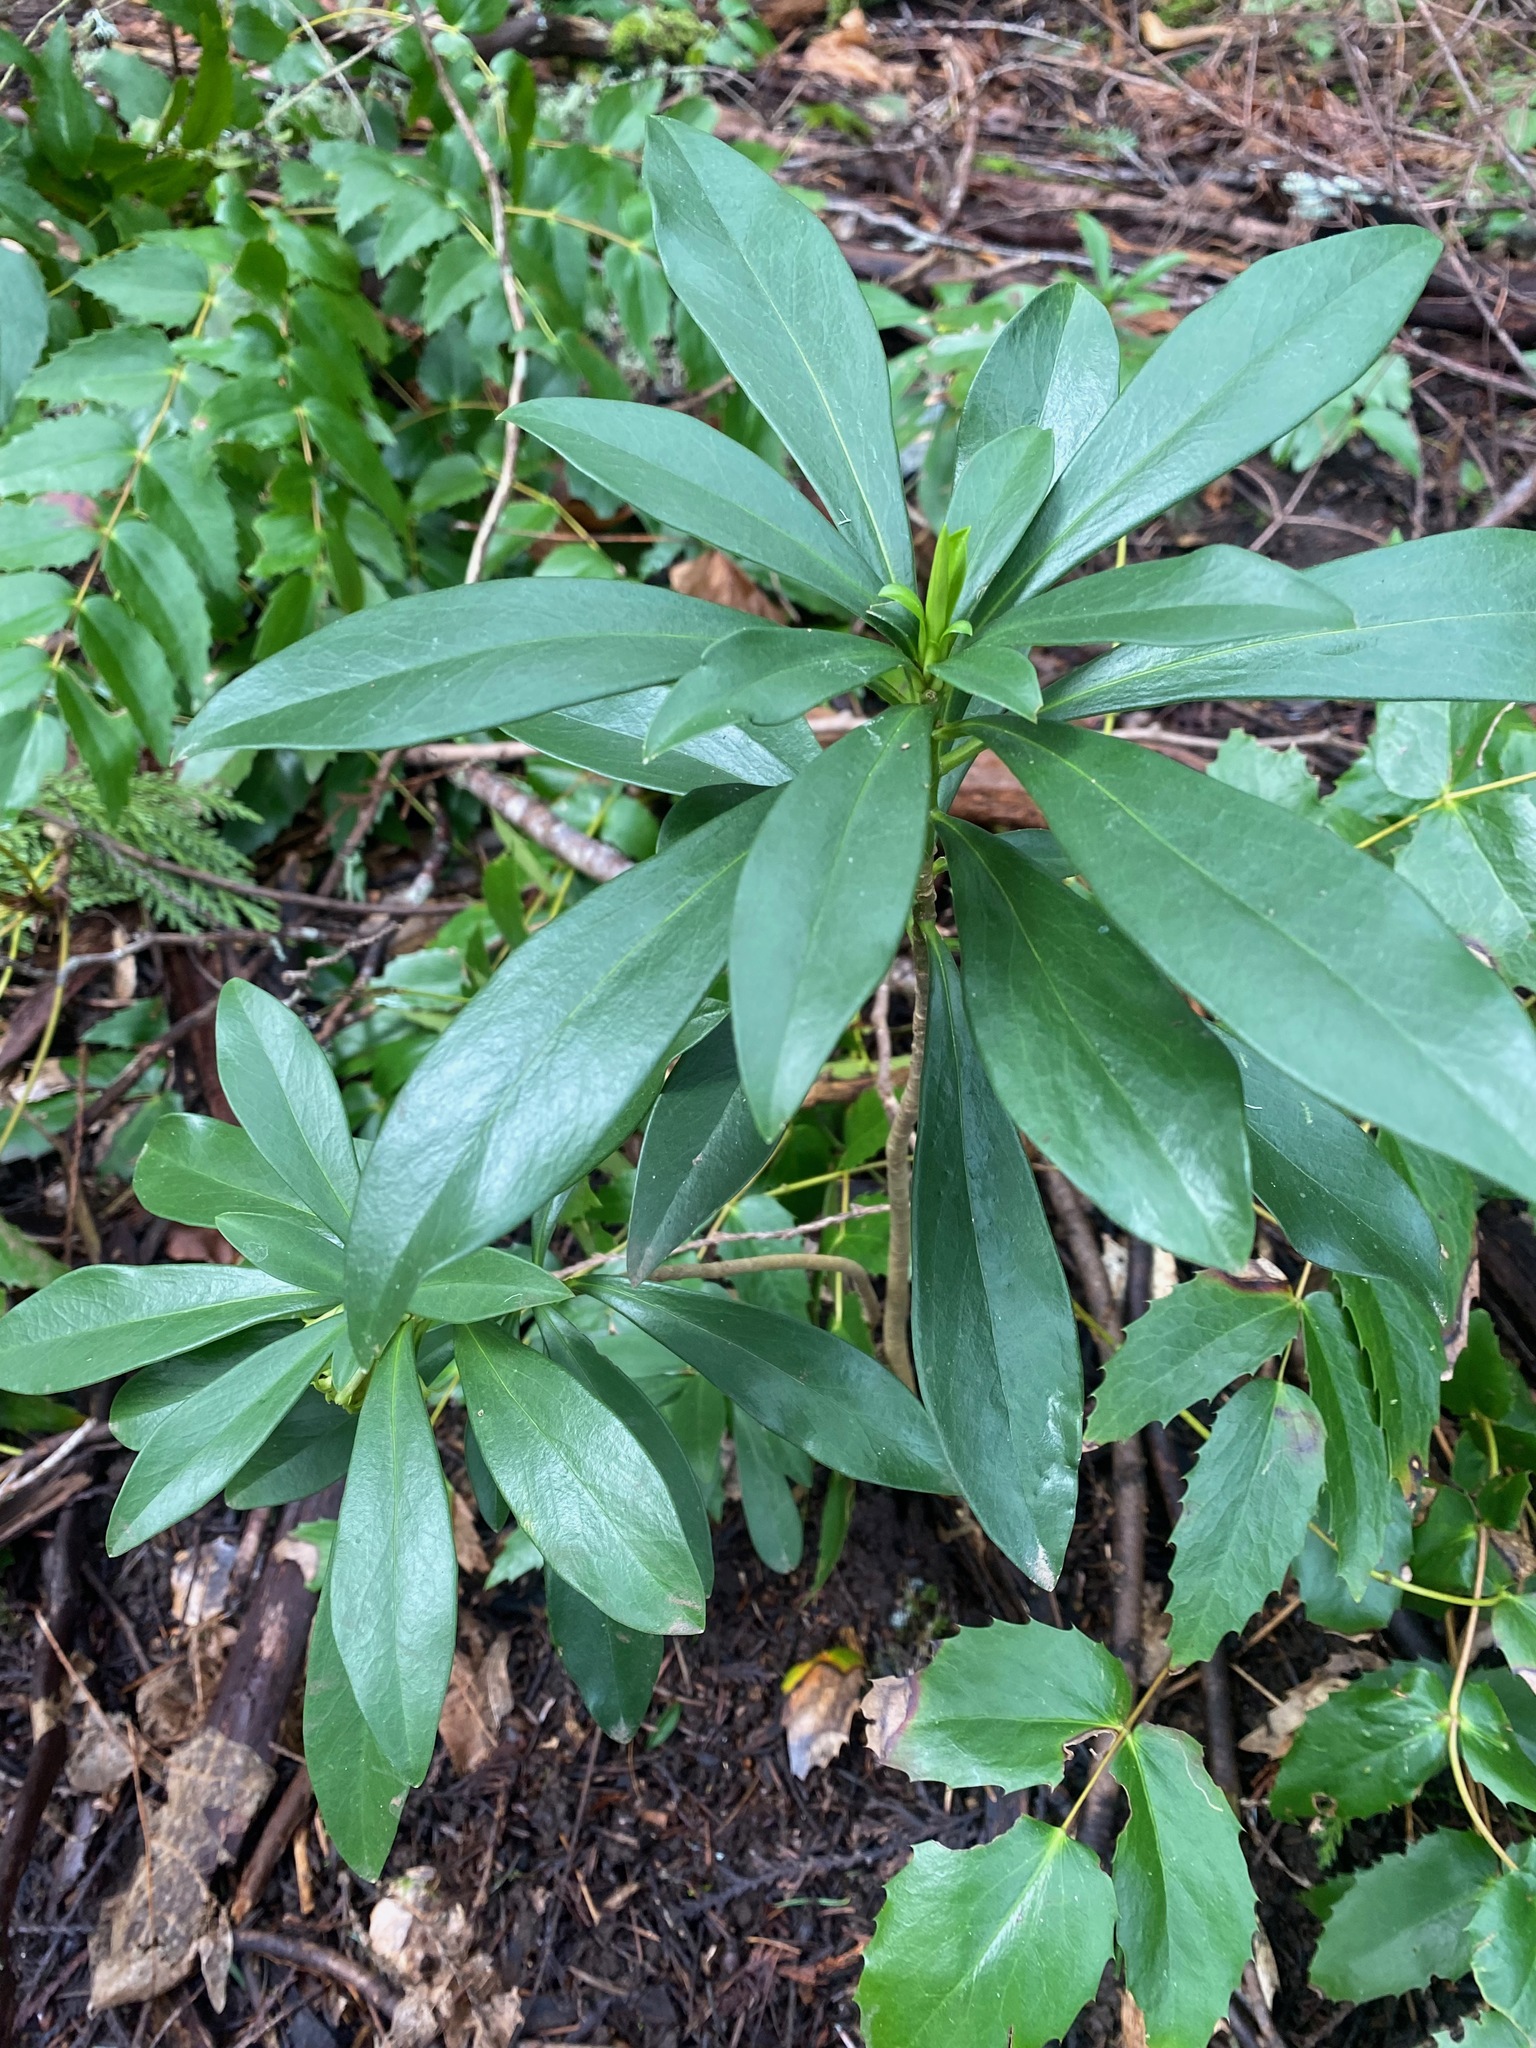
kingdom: Plantae
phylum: Tracheophyta
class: Magnoliopsida
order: Malvales
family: Thymelaeaceae
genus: Daphne
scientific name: Daphne laureola
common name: Spurge-laurel
